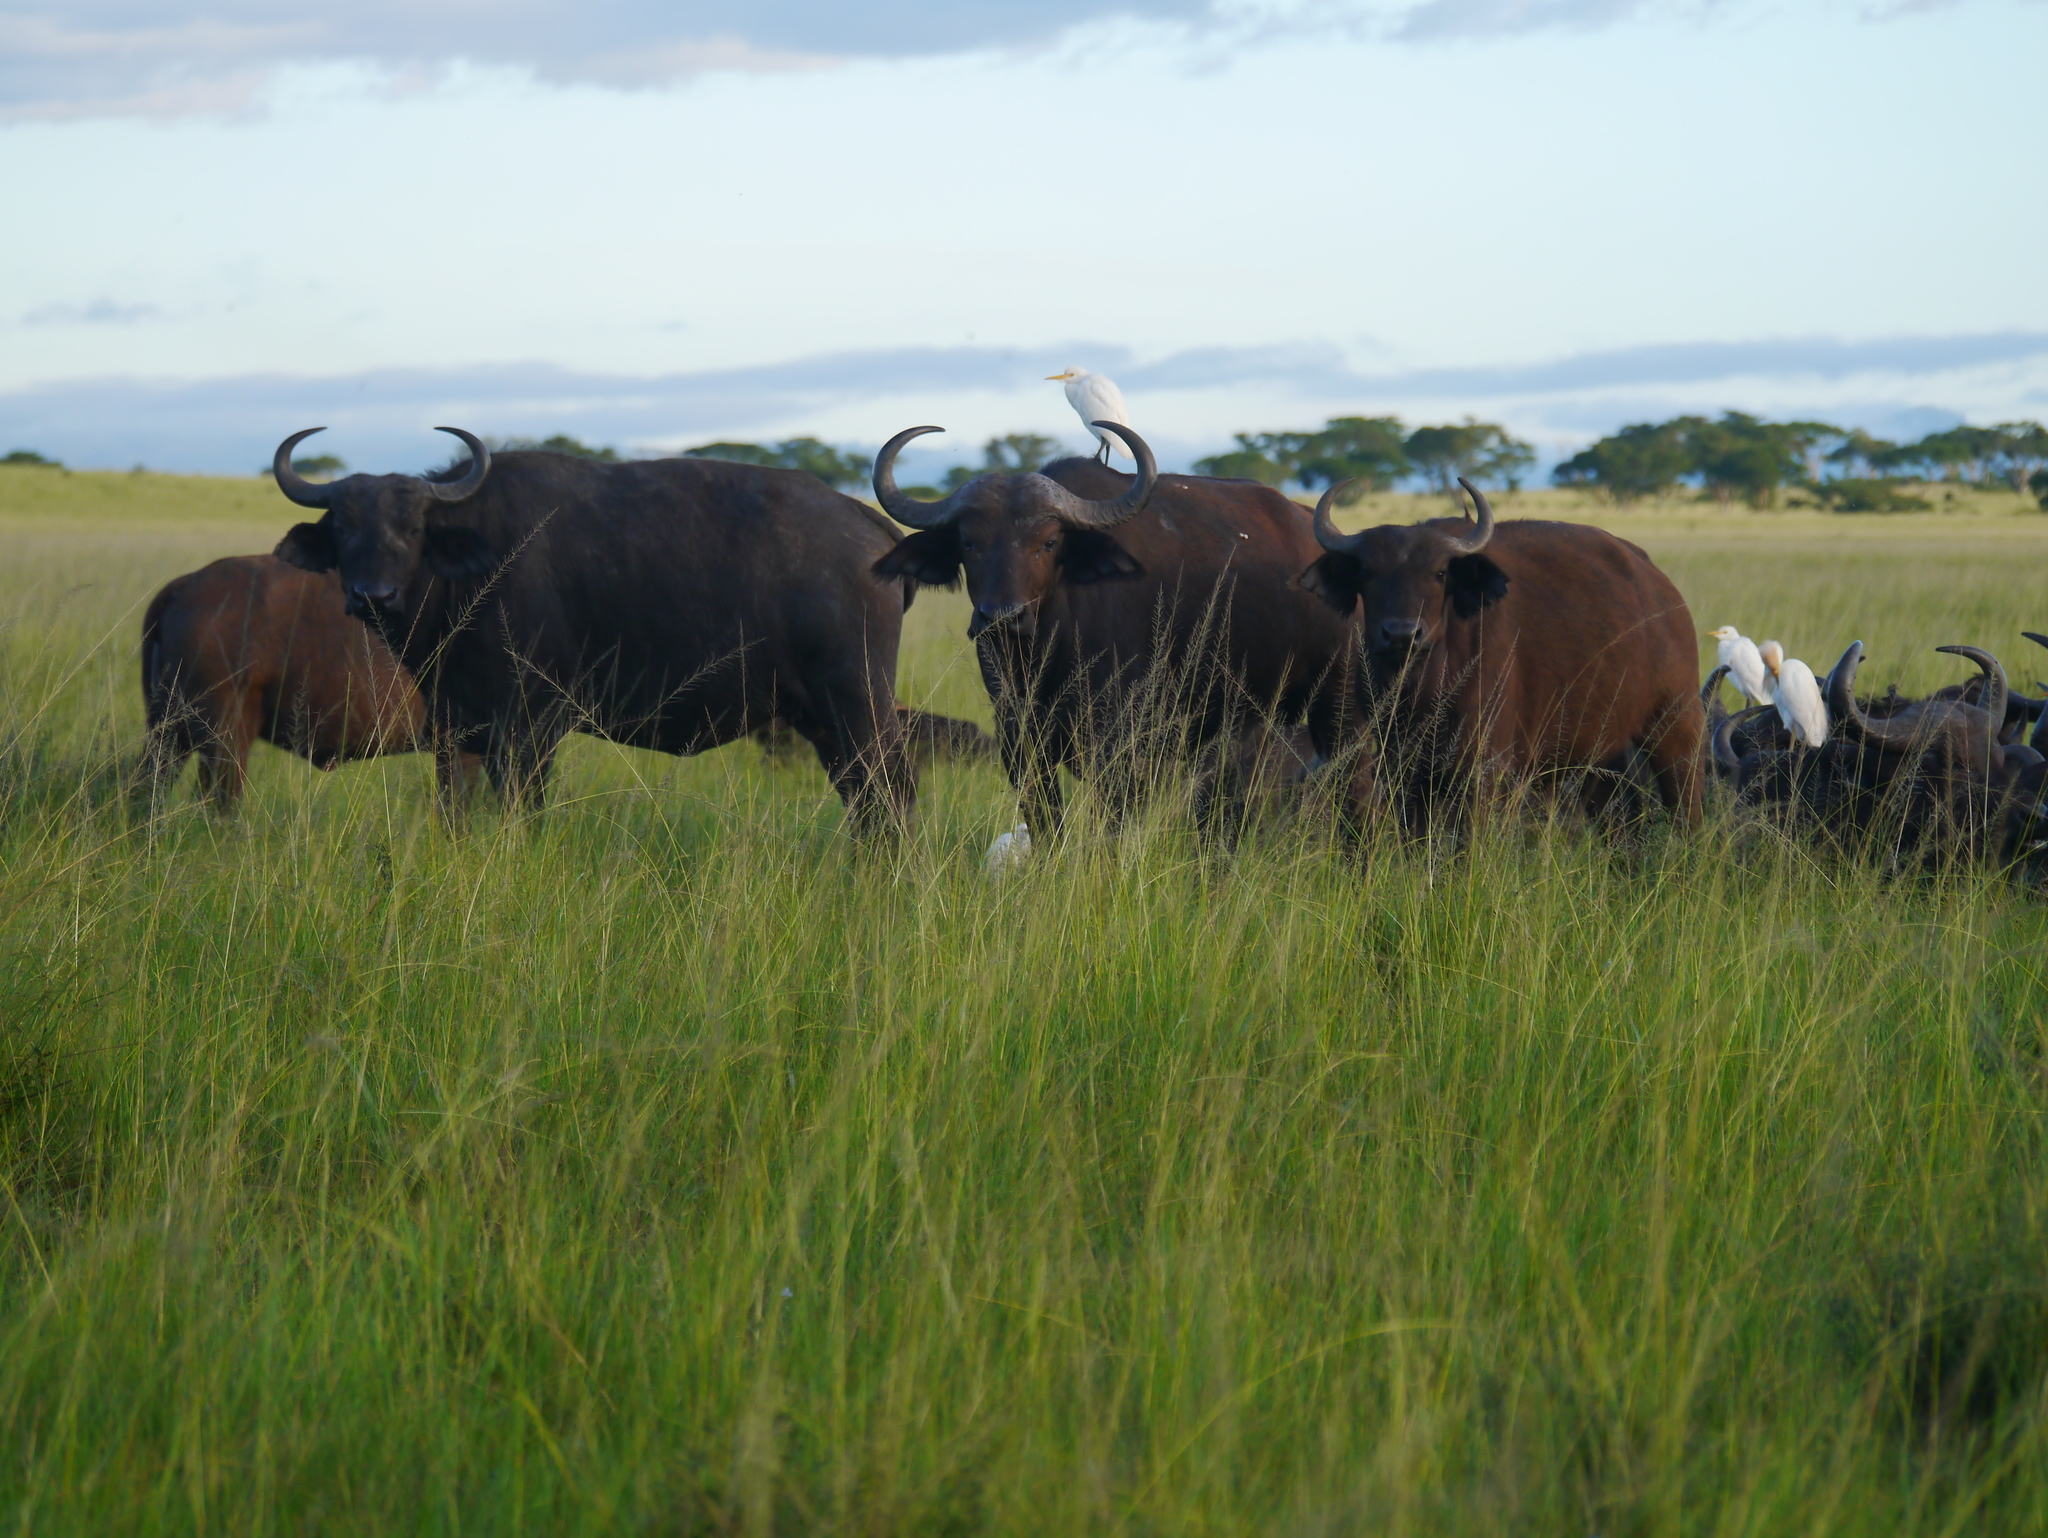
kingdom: Animalia
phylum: Chordata
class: Mammalia
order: Artiodactyla
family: Bovidae
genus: Syncerus
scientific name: Syncerus caffer
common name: African buffalo
